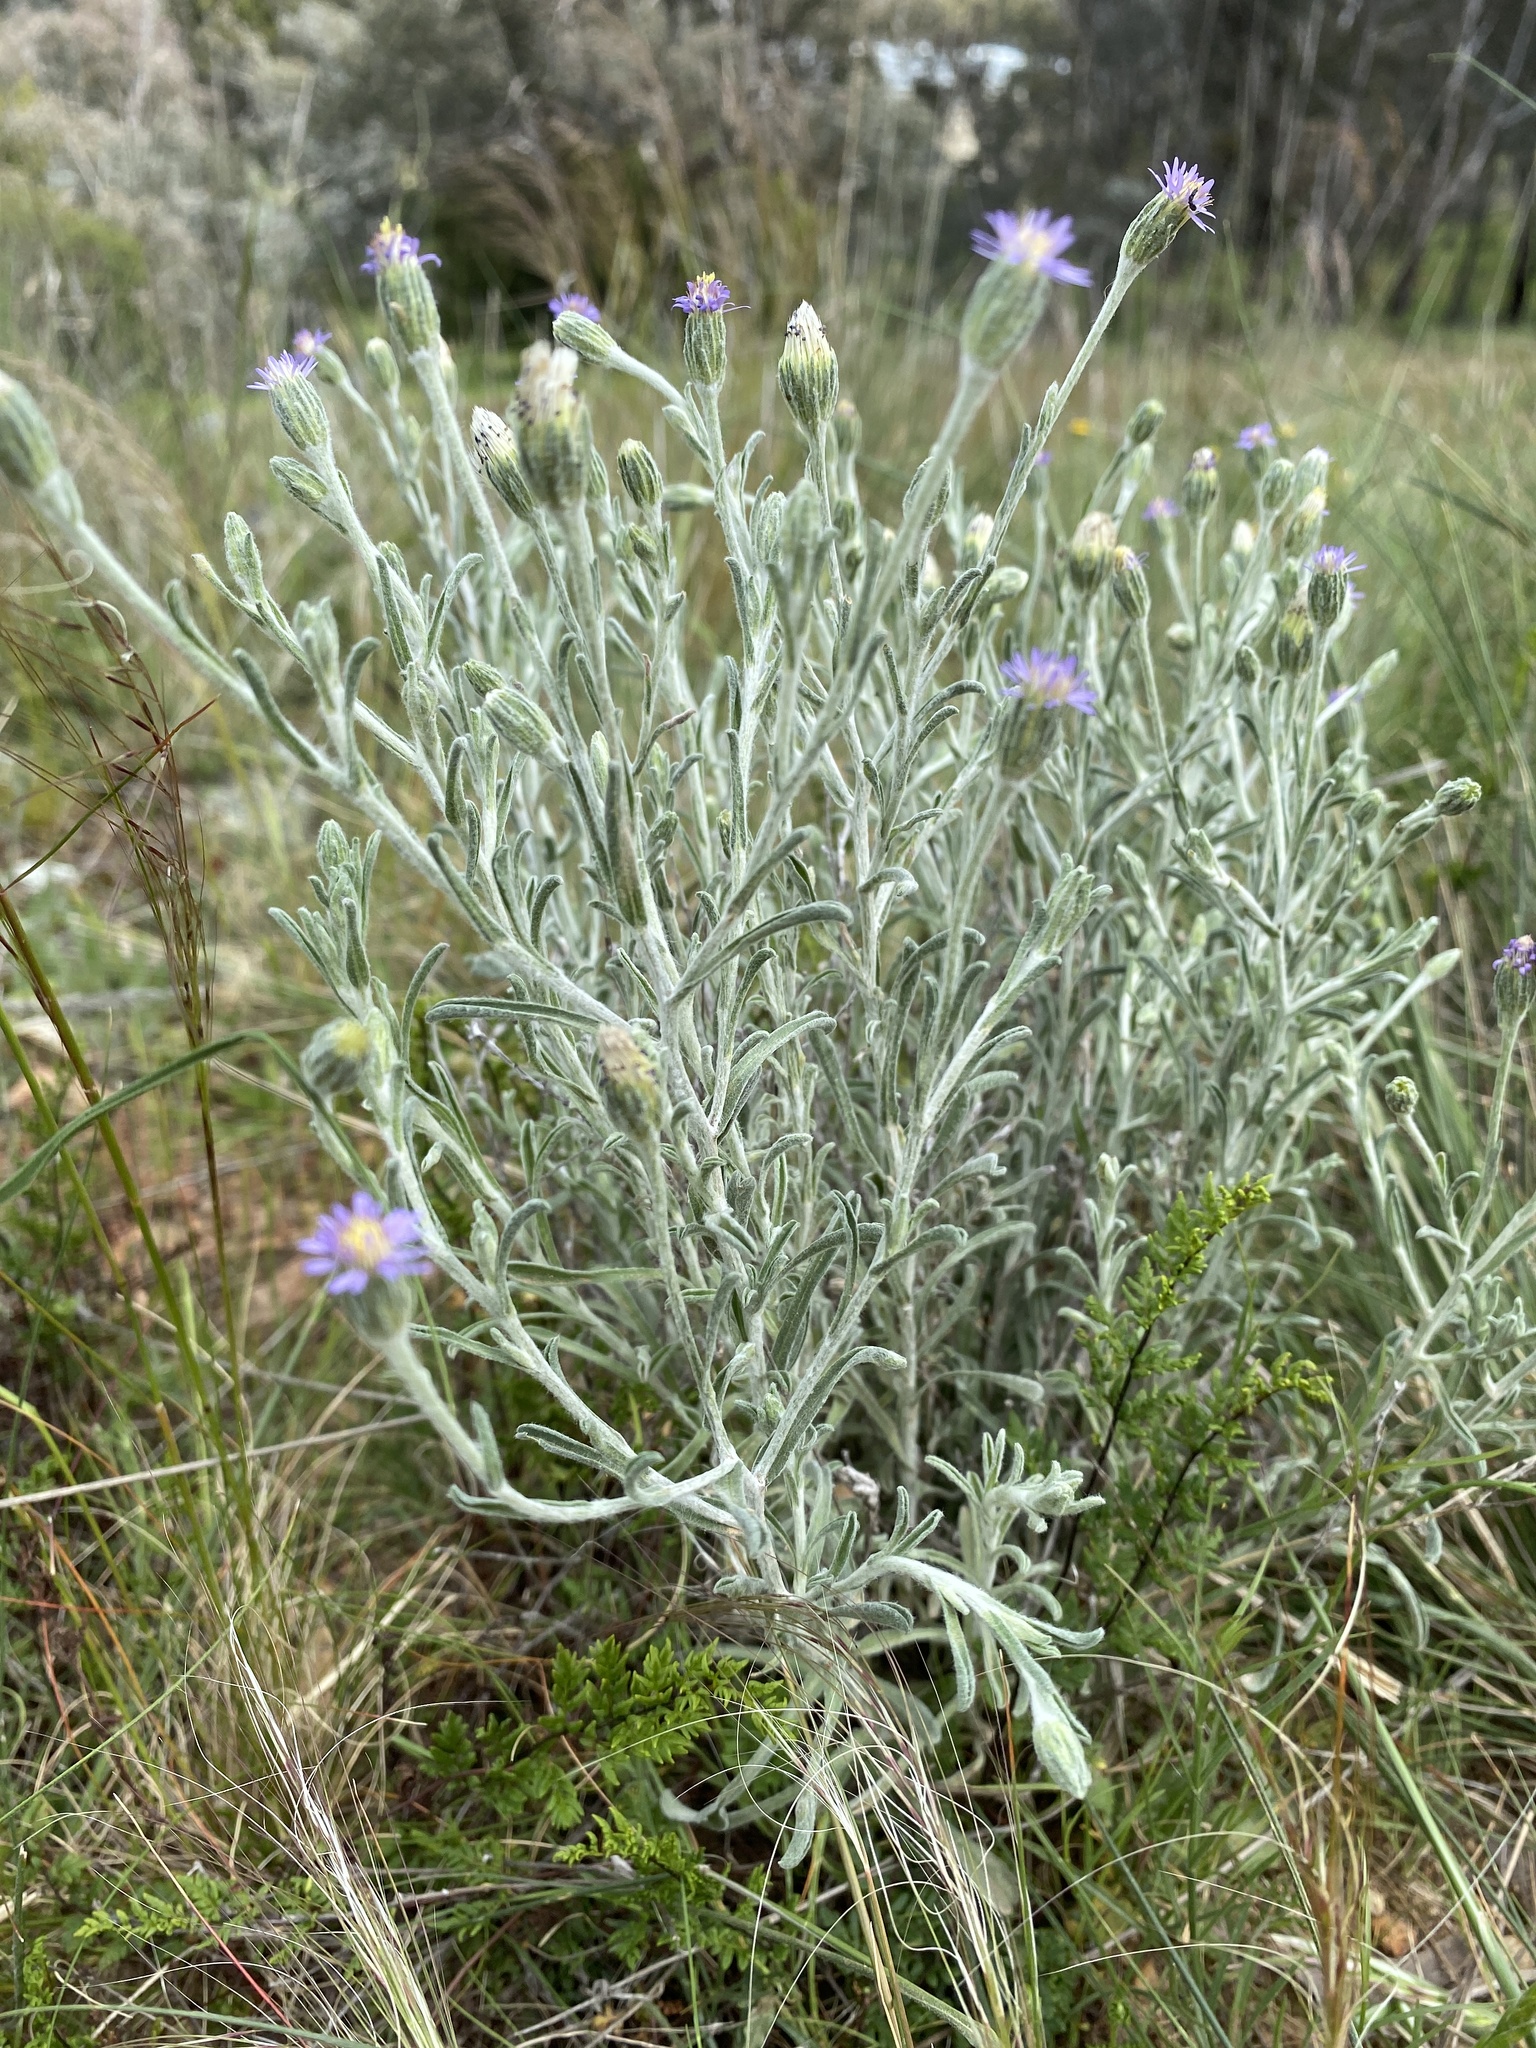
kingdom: Plantae
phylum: Tracheophyta
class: Magnoliopsida
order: Asterales
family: Asteraceae
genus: Vittadinia
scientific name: Vittadinia gracilis
